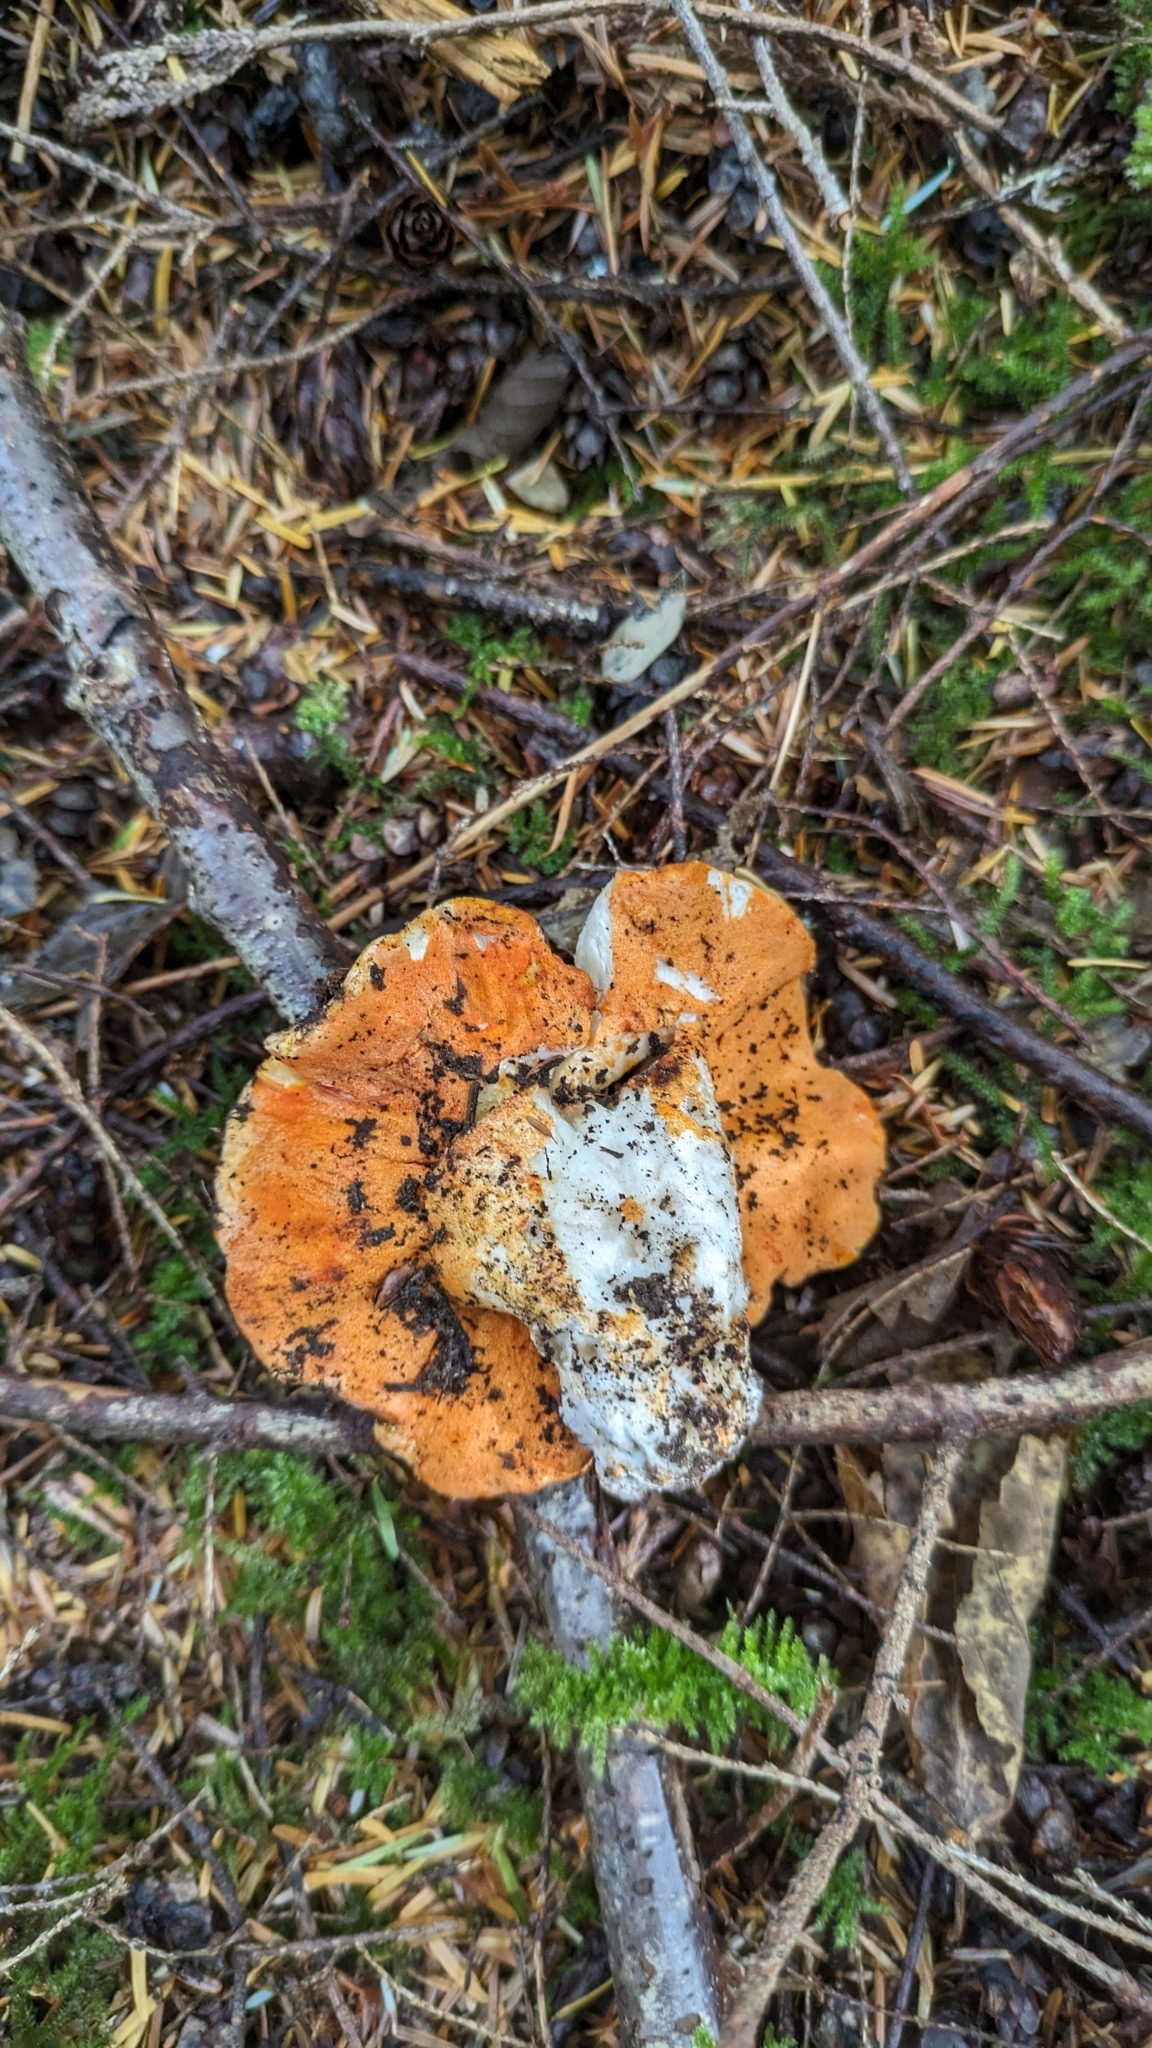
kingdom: Fungi
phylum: Ascomycota
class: Sordariomycetes
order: Hypocreales
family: Hypocreaceae
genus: Hypomyces
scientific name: Hypomyces lactifluorum
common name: Lobster mushroom
